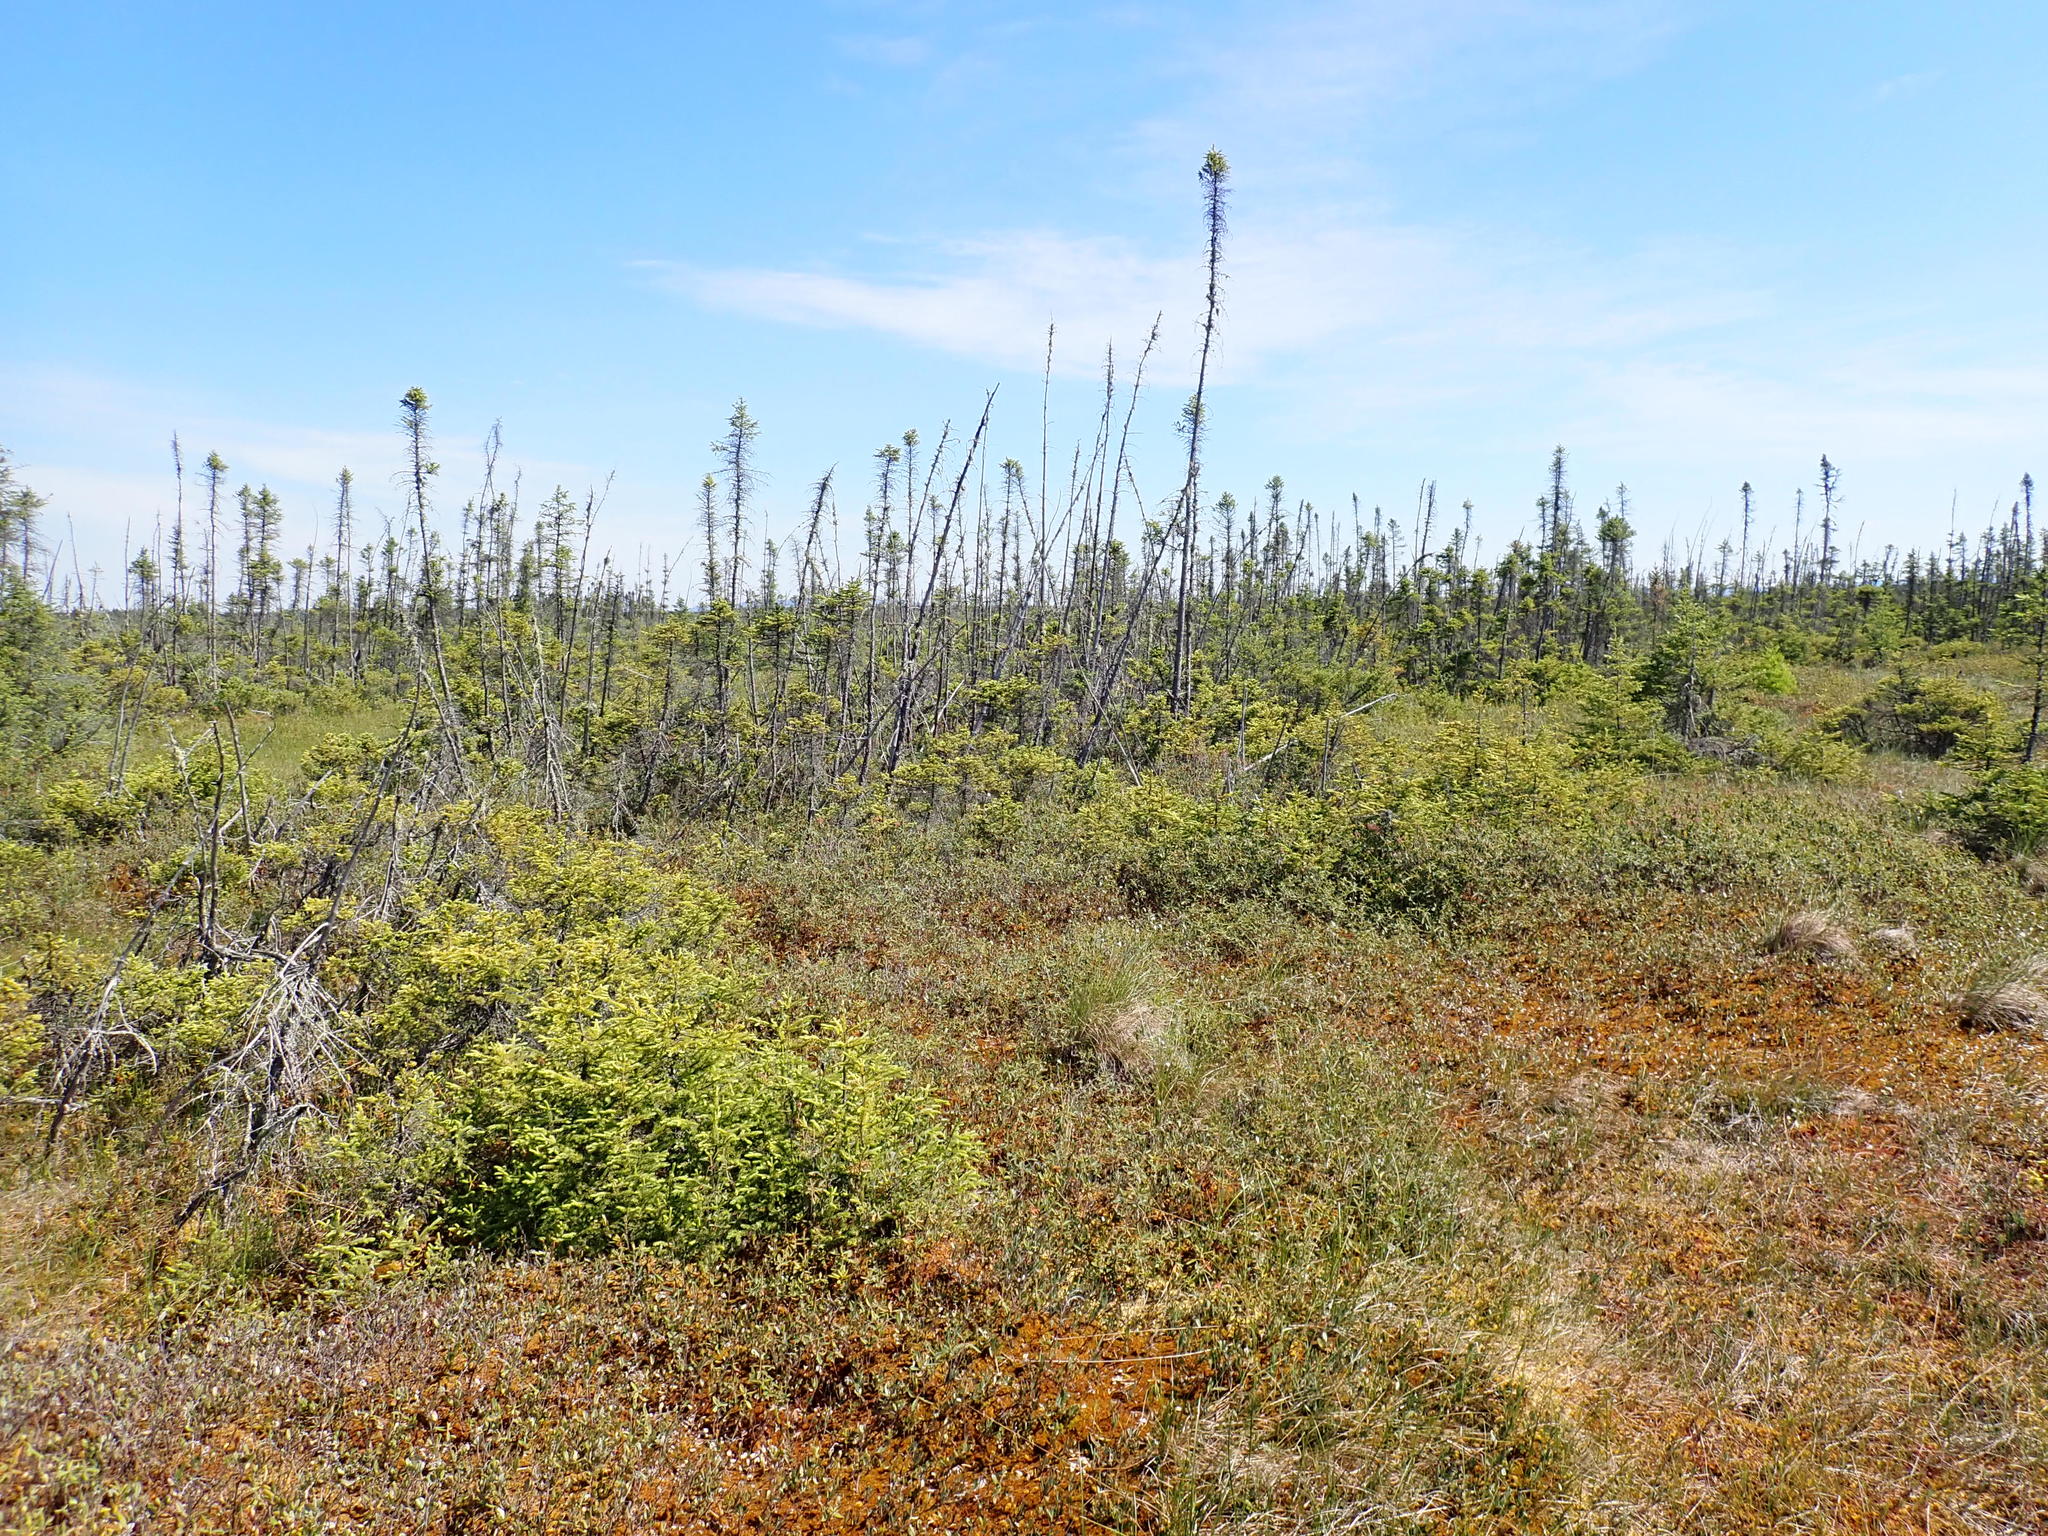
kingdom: Plantae
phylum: Tracheophyta
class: Pinopsida
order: Pinales
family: Pinaceae
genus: Picea
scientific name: Picea mariana
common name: Black spruce
